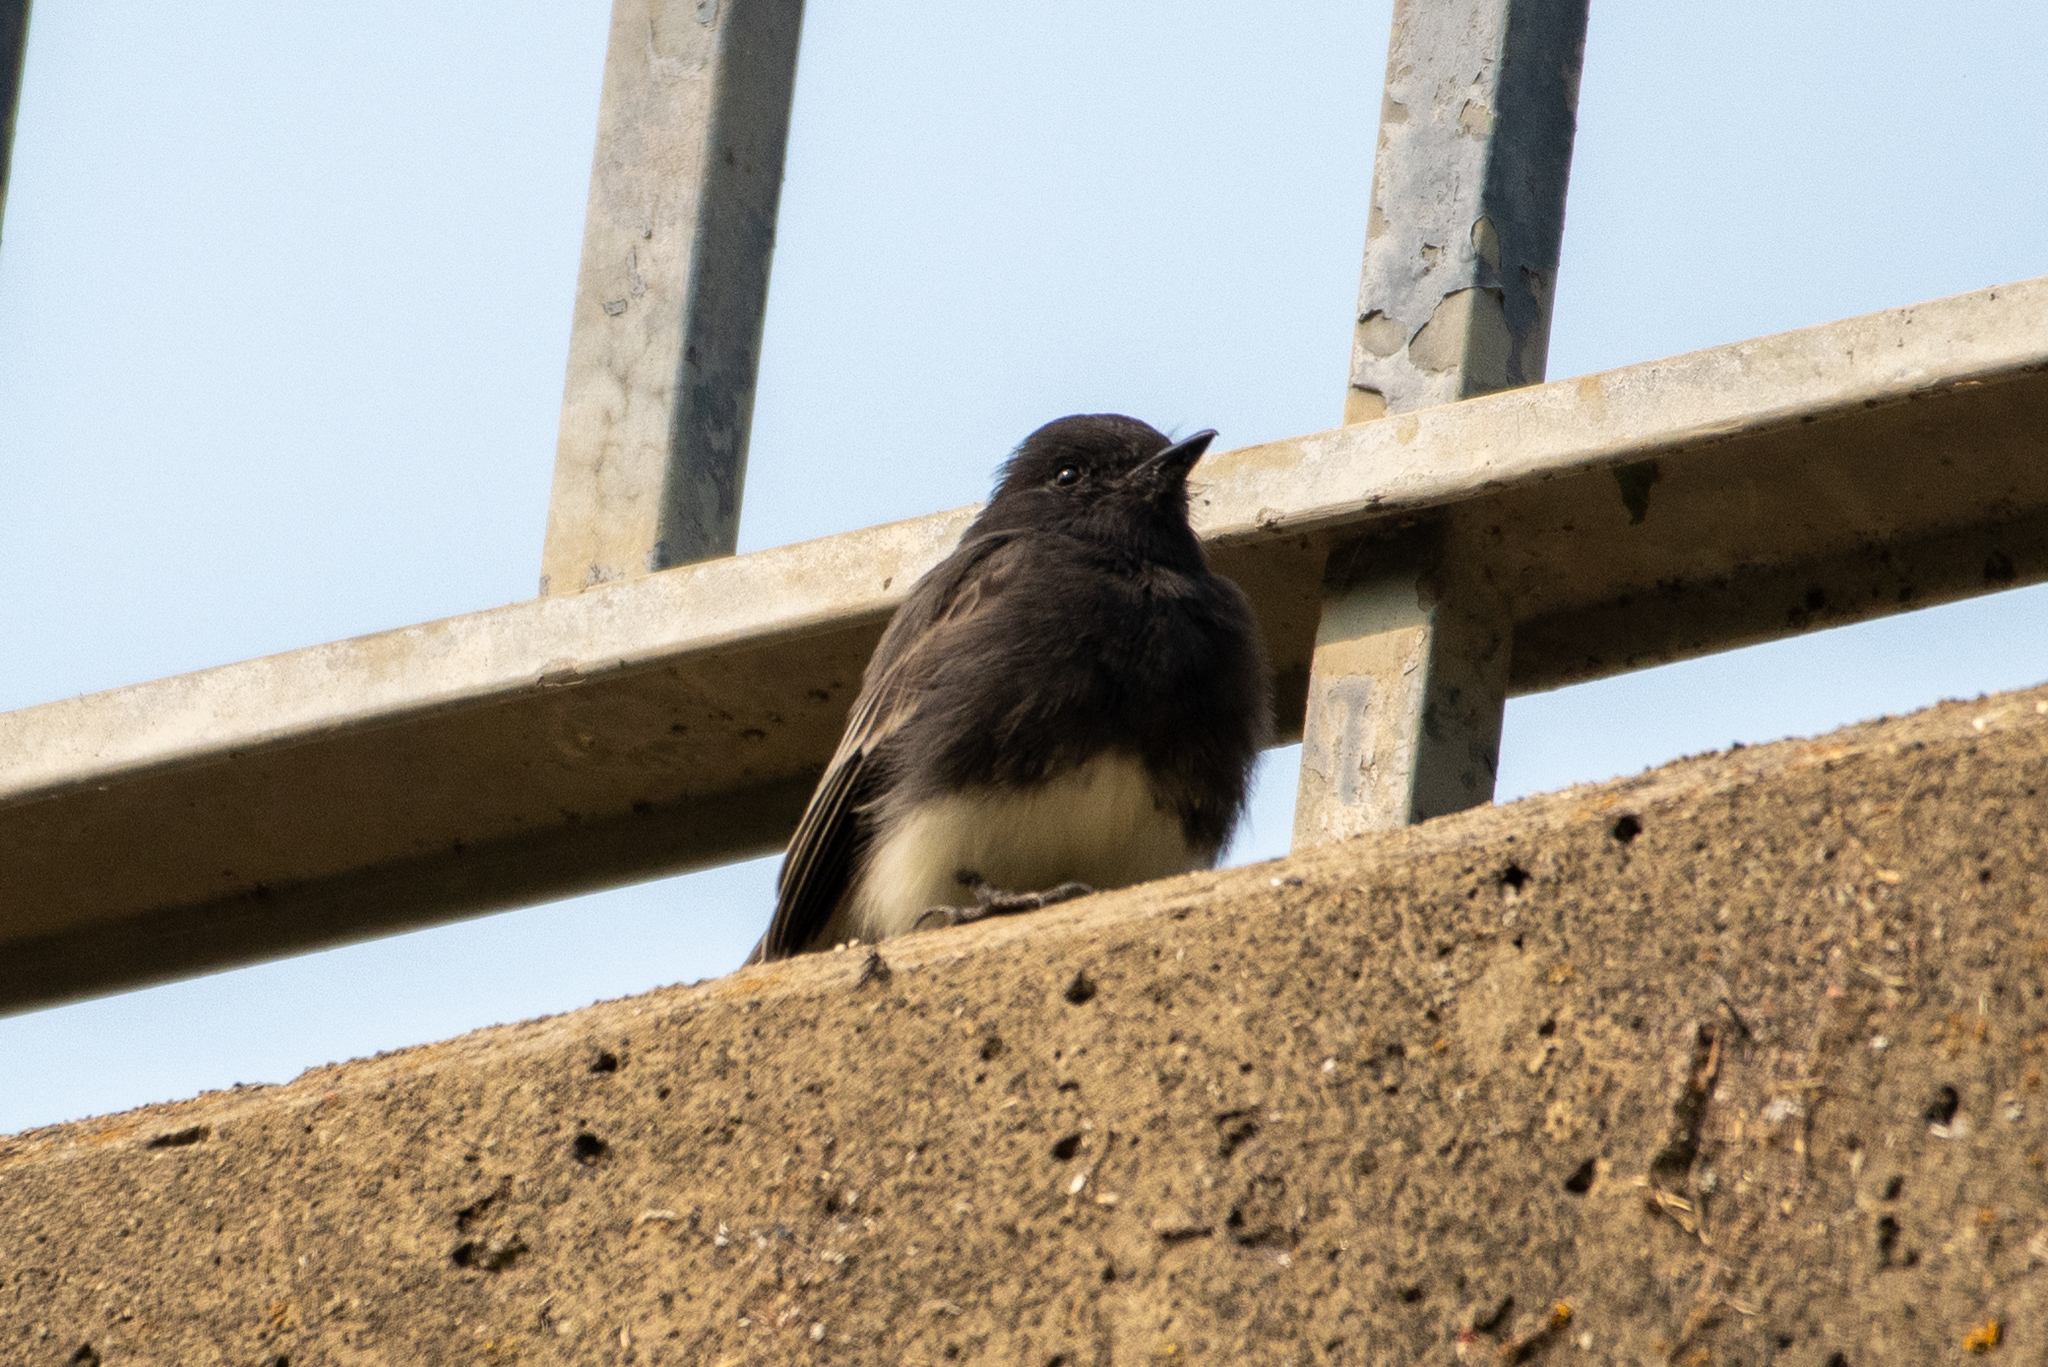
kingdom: Animalia
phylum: Chordata
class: Aves
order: Passeriformes
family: Tyrannidae
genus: Sayornis
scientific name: Sayornis nigricans
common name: Black phoebe
